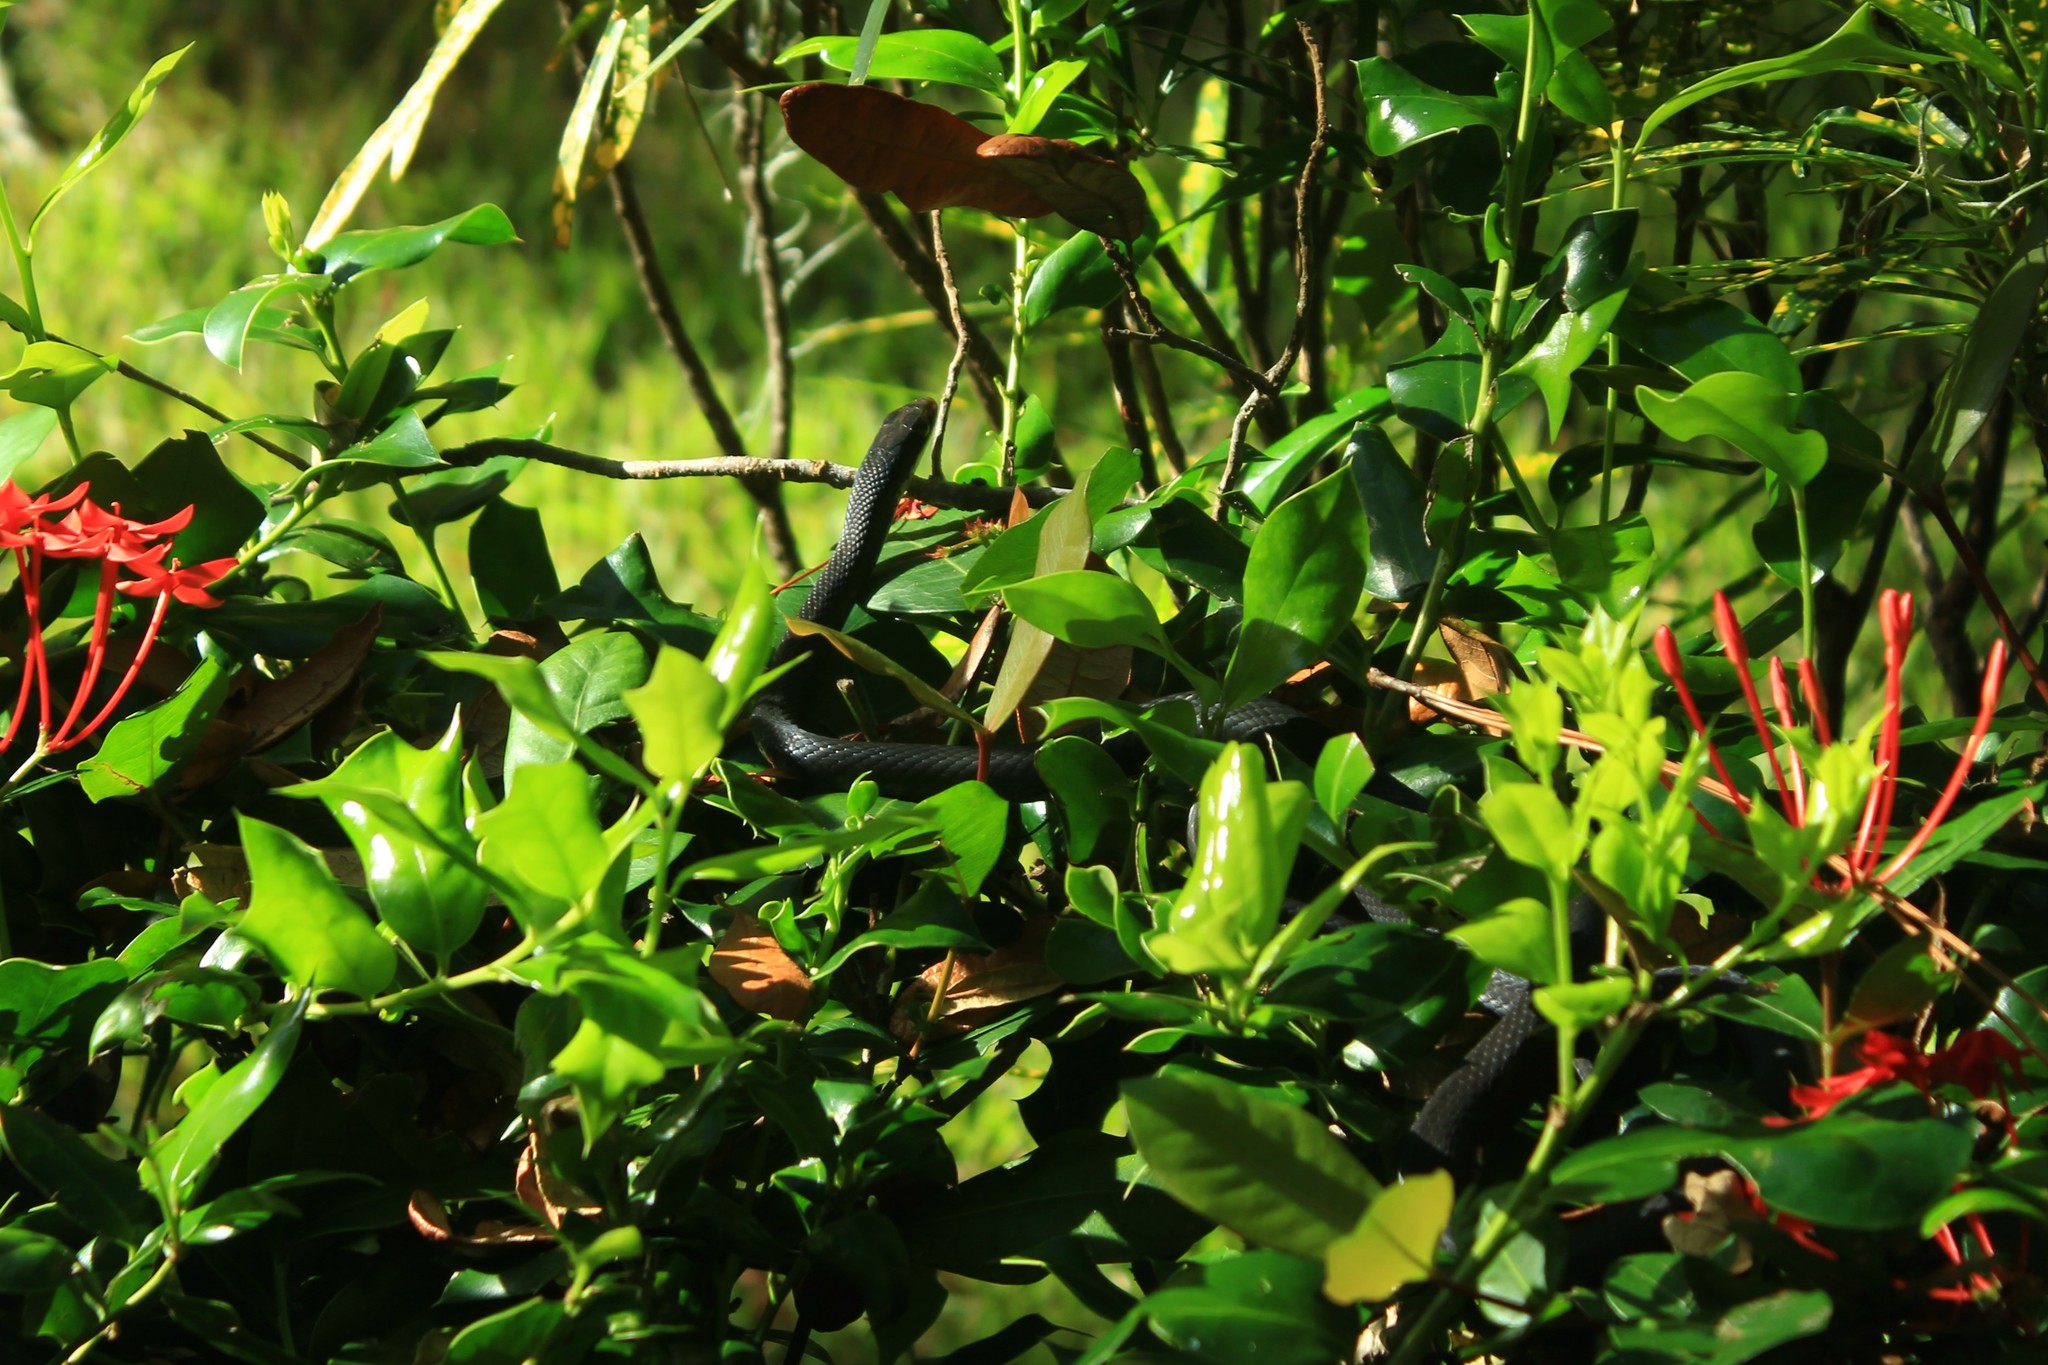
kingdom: Animalia
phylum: Chordata
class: Squamata
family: Colubridae
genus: Coluber
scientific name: Coluber constrictor
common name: Eastern racer
